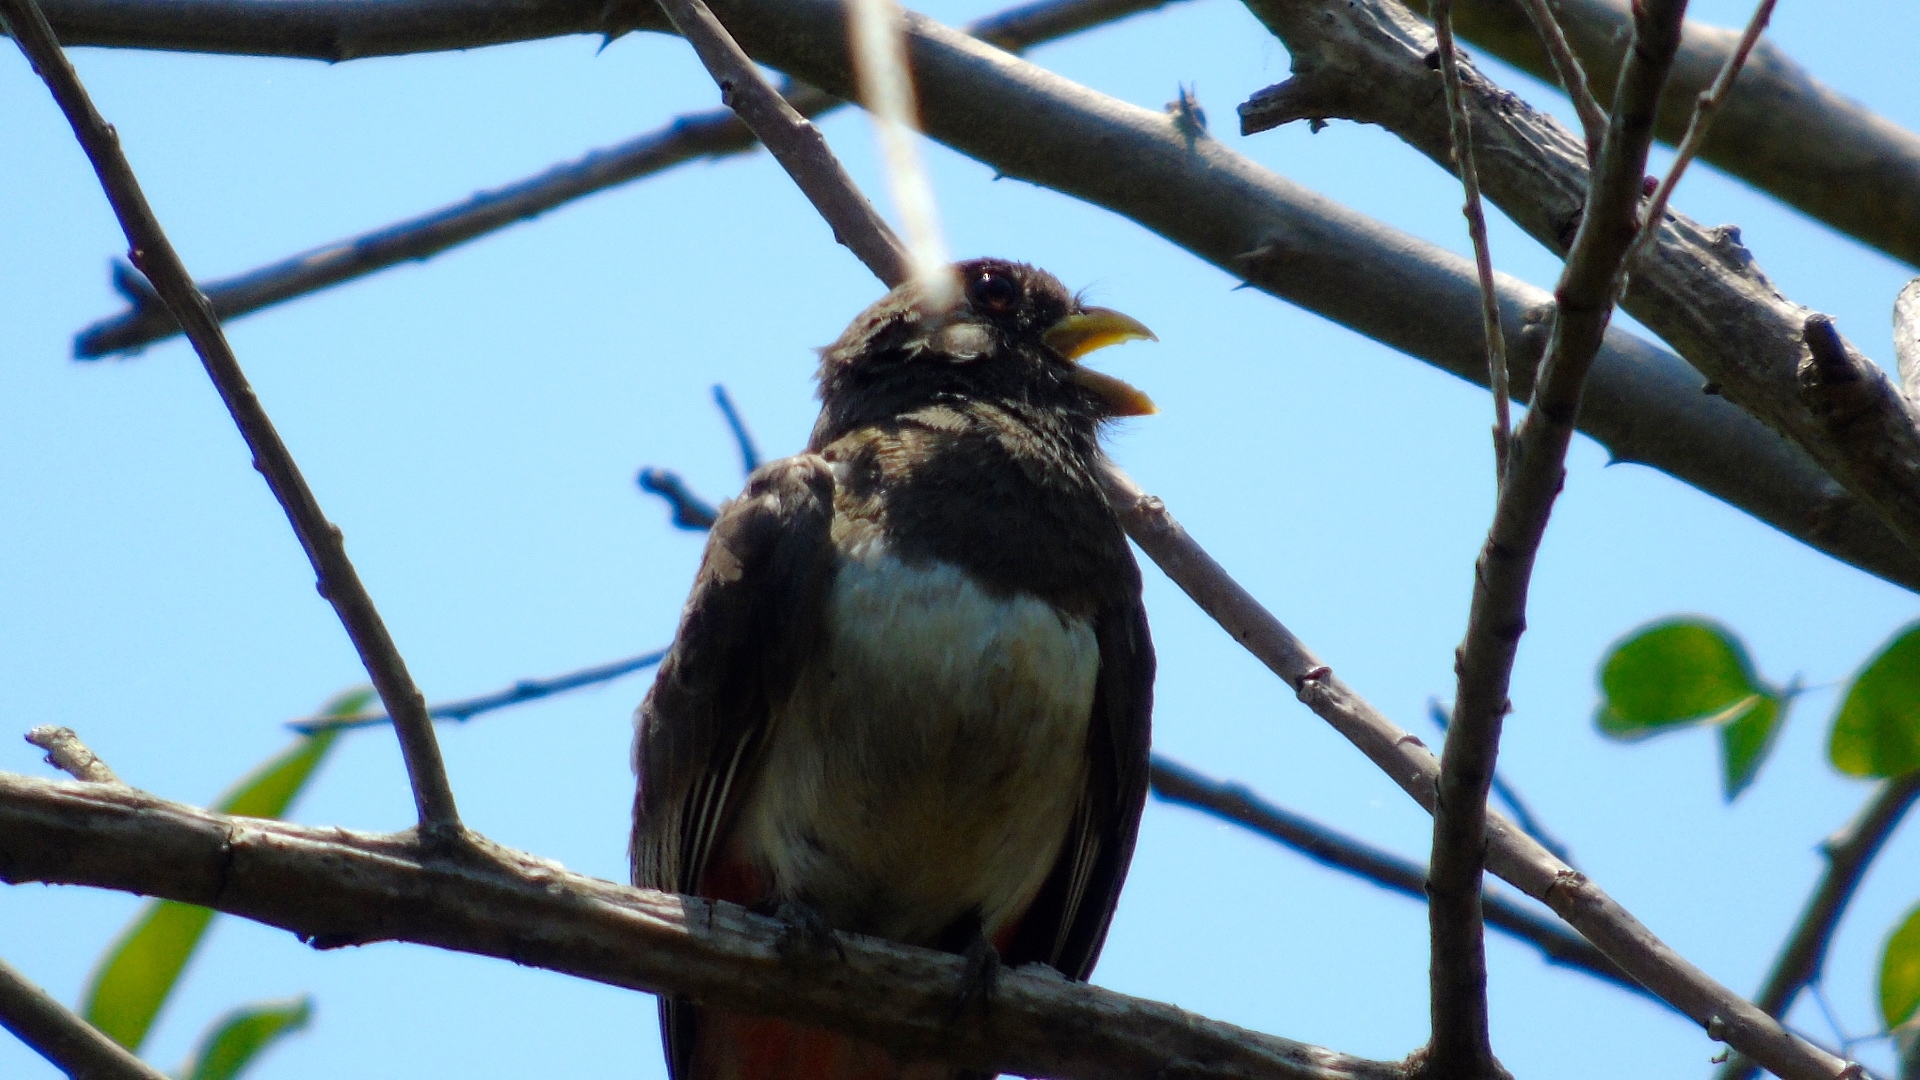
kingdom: Animalia
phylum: Chordata
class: Aves
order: Trogoniformes
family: Trogonidae
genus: Trogon
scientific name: Trogon elegans
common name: Elegant trogon
